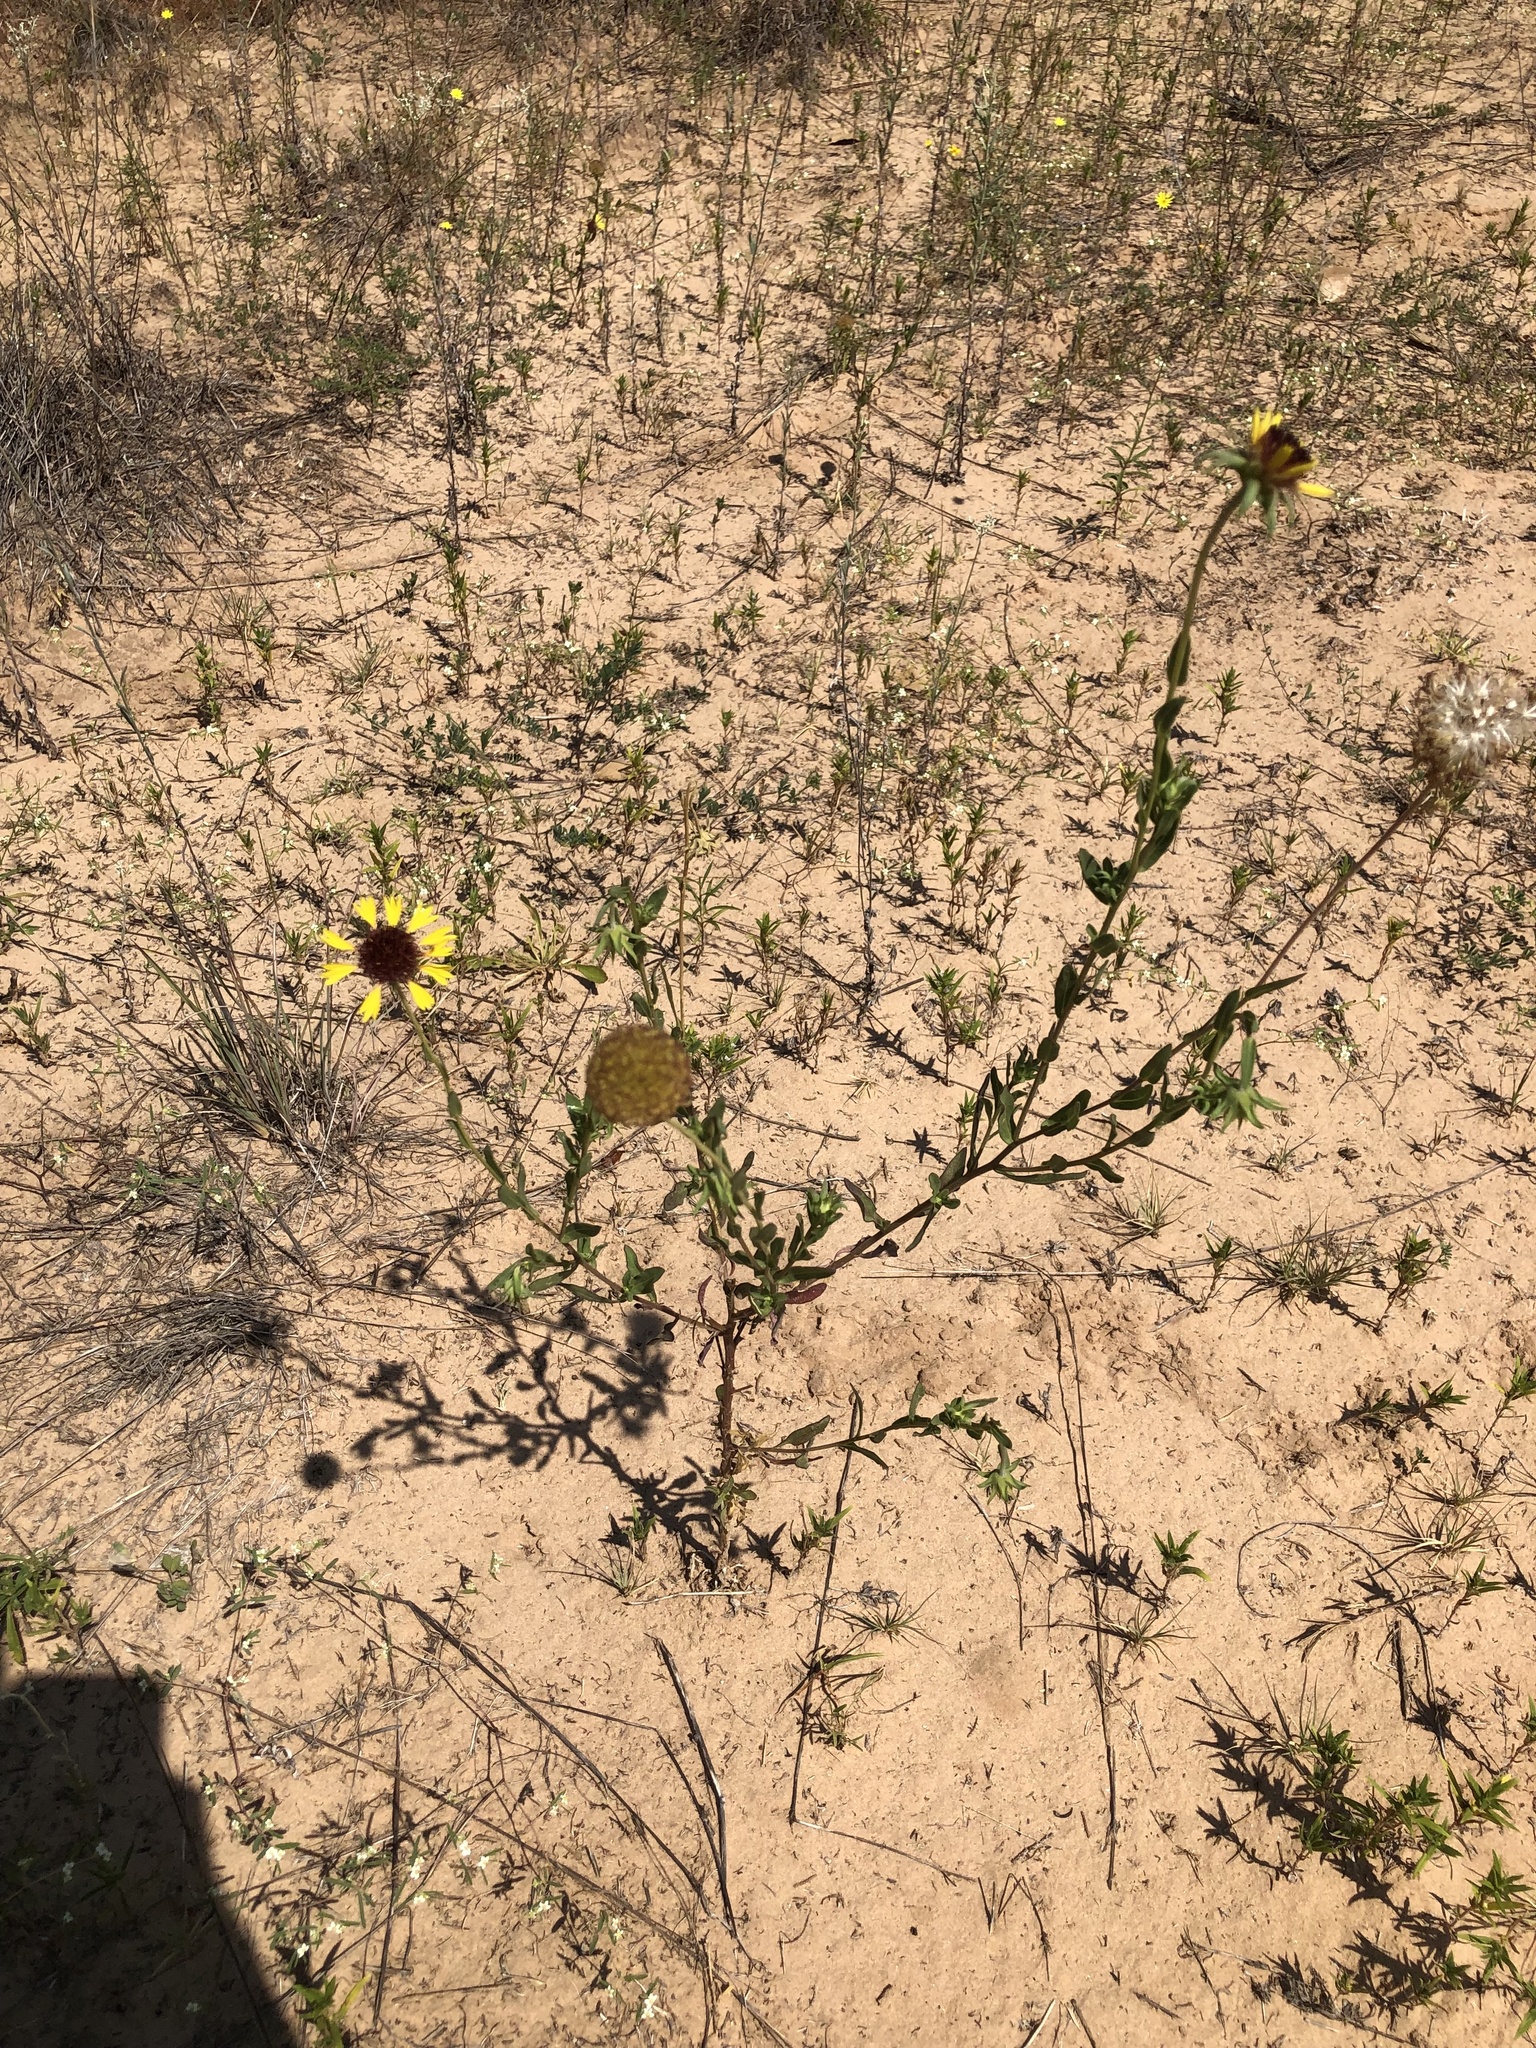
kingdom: Plantae
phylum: Tracheophyta
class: Magnoliopsida
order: Asterales
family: Asteraceae
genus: Gaillardia
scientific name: Gaillardia aestivalis
